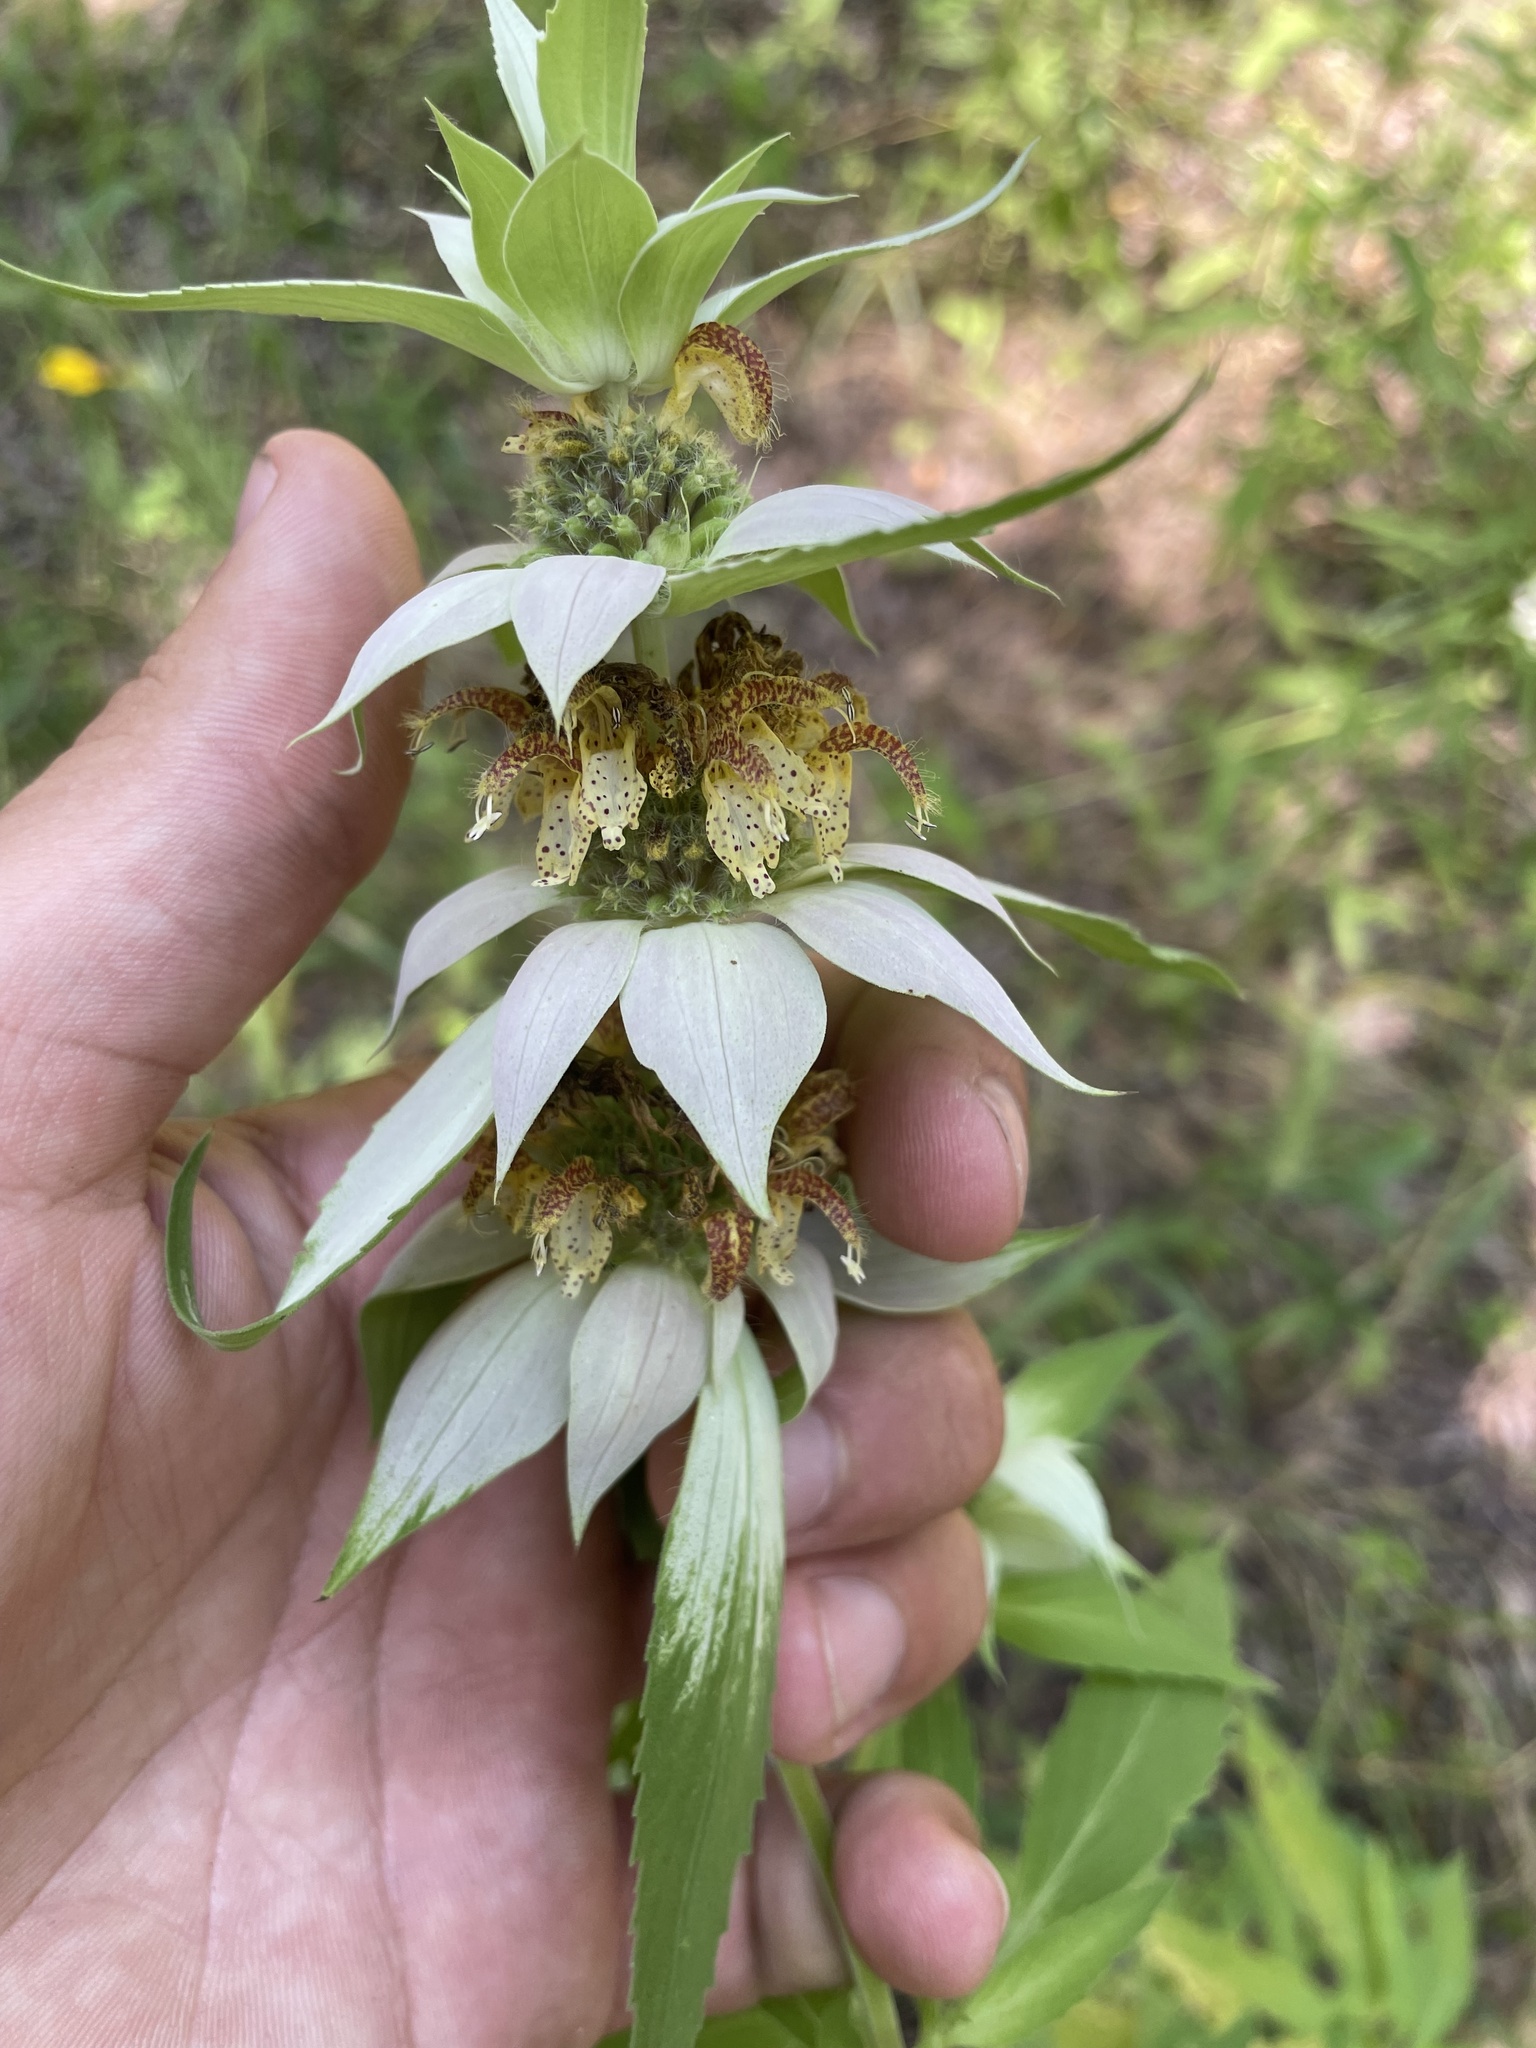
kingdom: Plantae
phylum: Tracheophyta
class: Magnoliopsida
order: Lamiales
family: Lamiaceae
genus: Monarda
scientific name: Monarda punctata
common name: Dotted monarda
